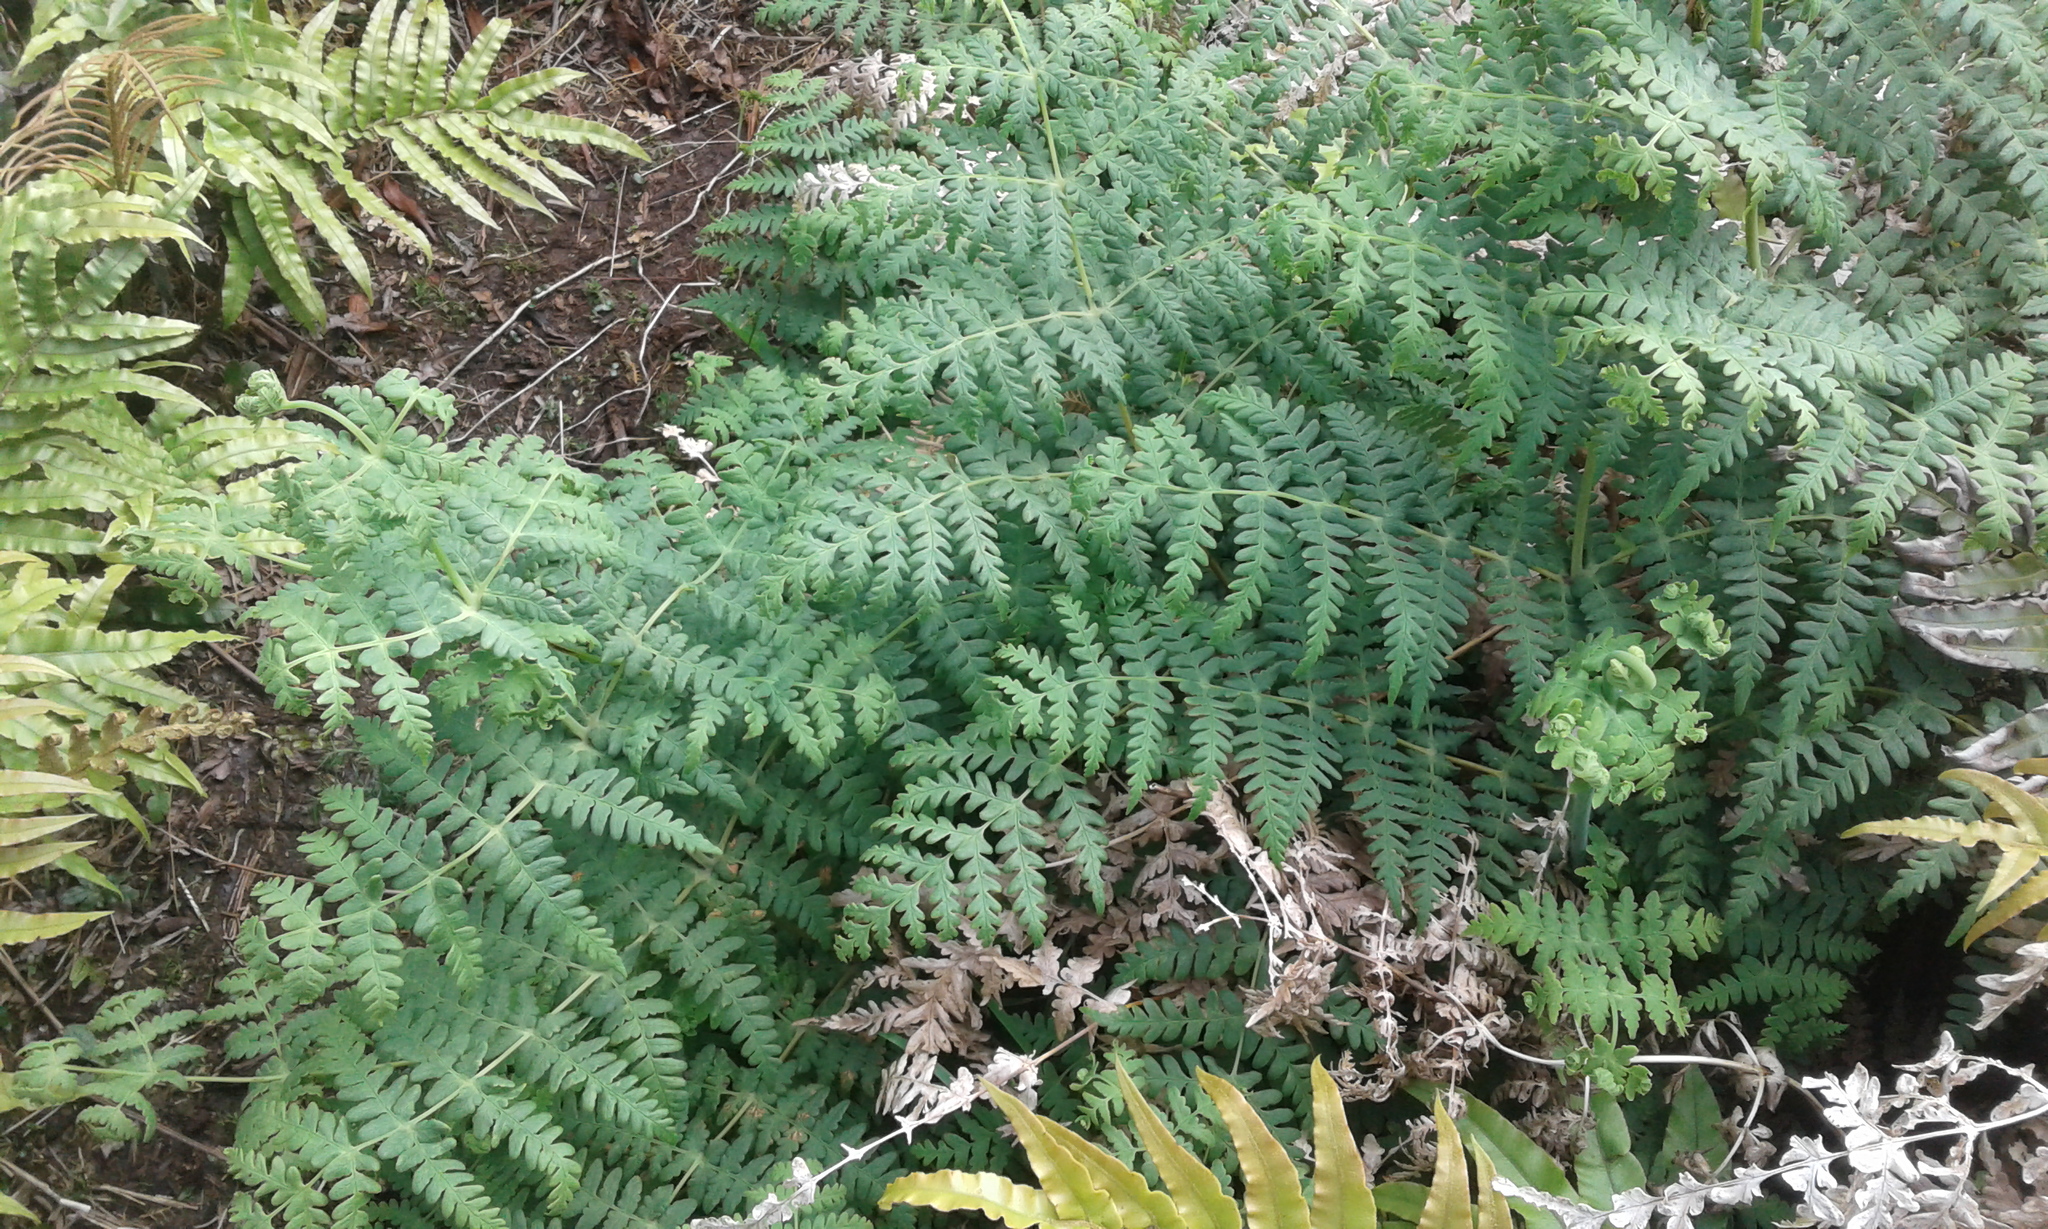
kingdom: Plantae
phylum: Tracheophyta
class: Polypodiopsida
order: Polypodiales
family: Dennstaedtiaceae
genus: Histiopteris
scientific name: Histiopteris incisa
